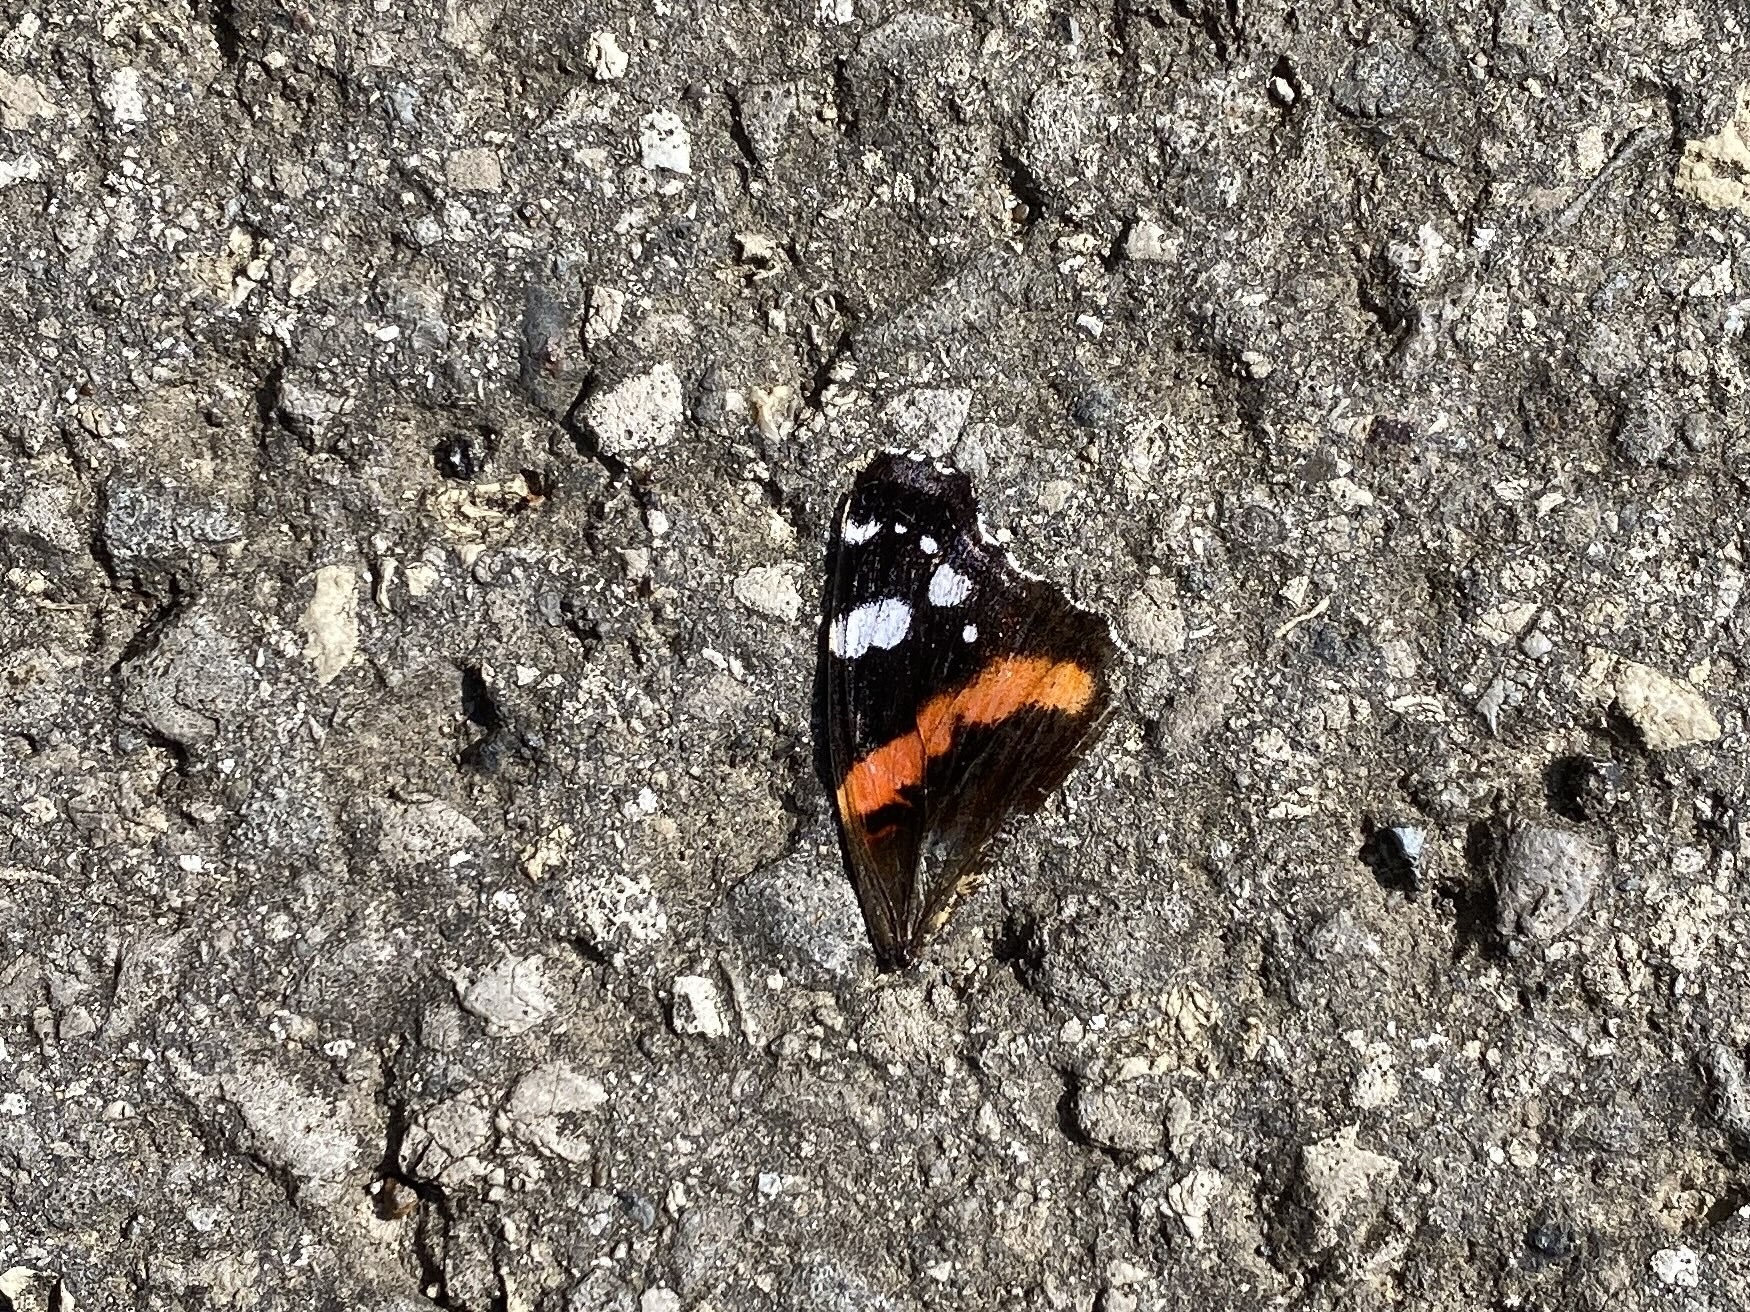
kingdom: Animalia
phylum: Arthropoda
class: Insecta
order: Lepidoptera
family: Nymphalidae
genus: Vanessa
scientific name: Vanessa atalanta
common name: Red admiral
